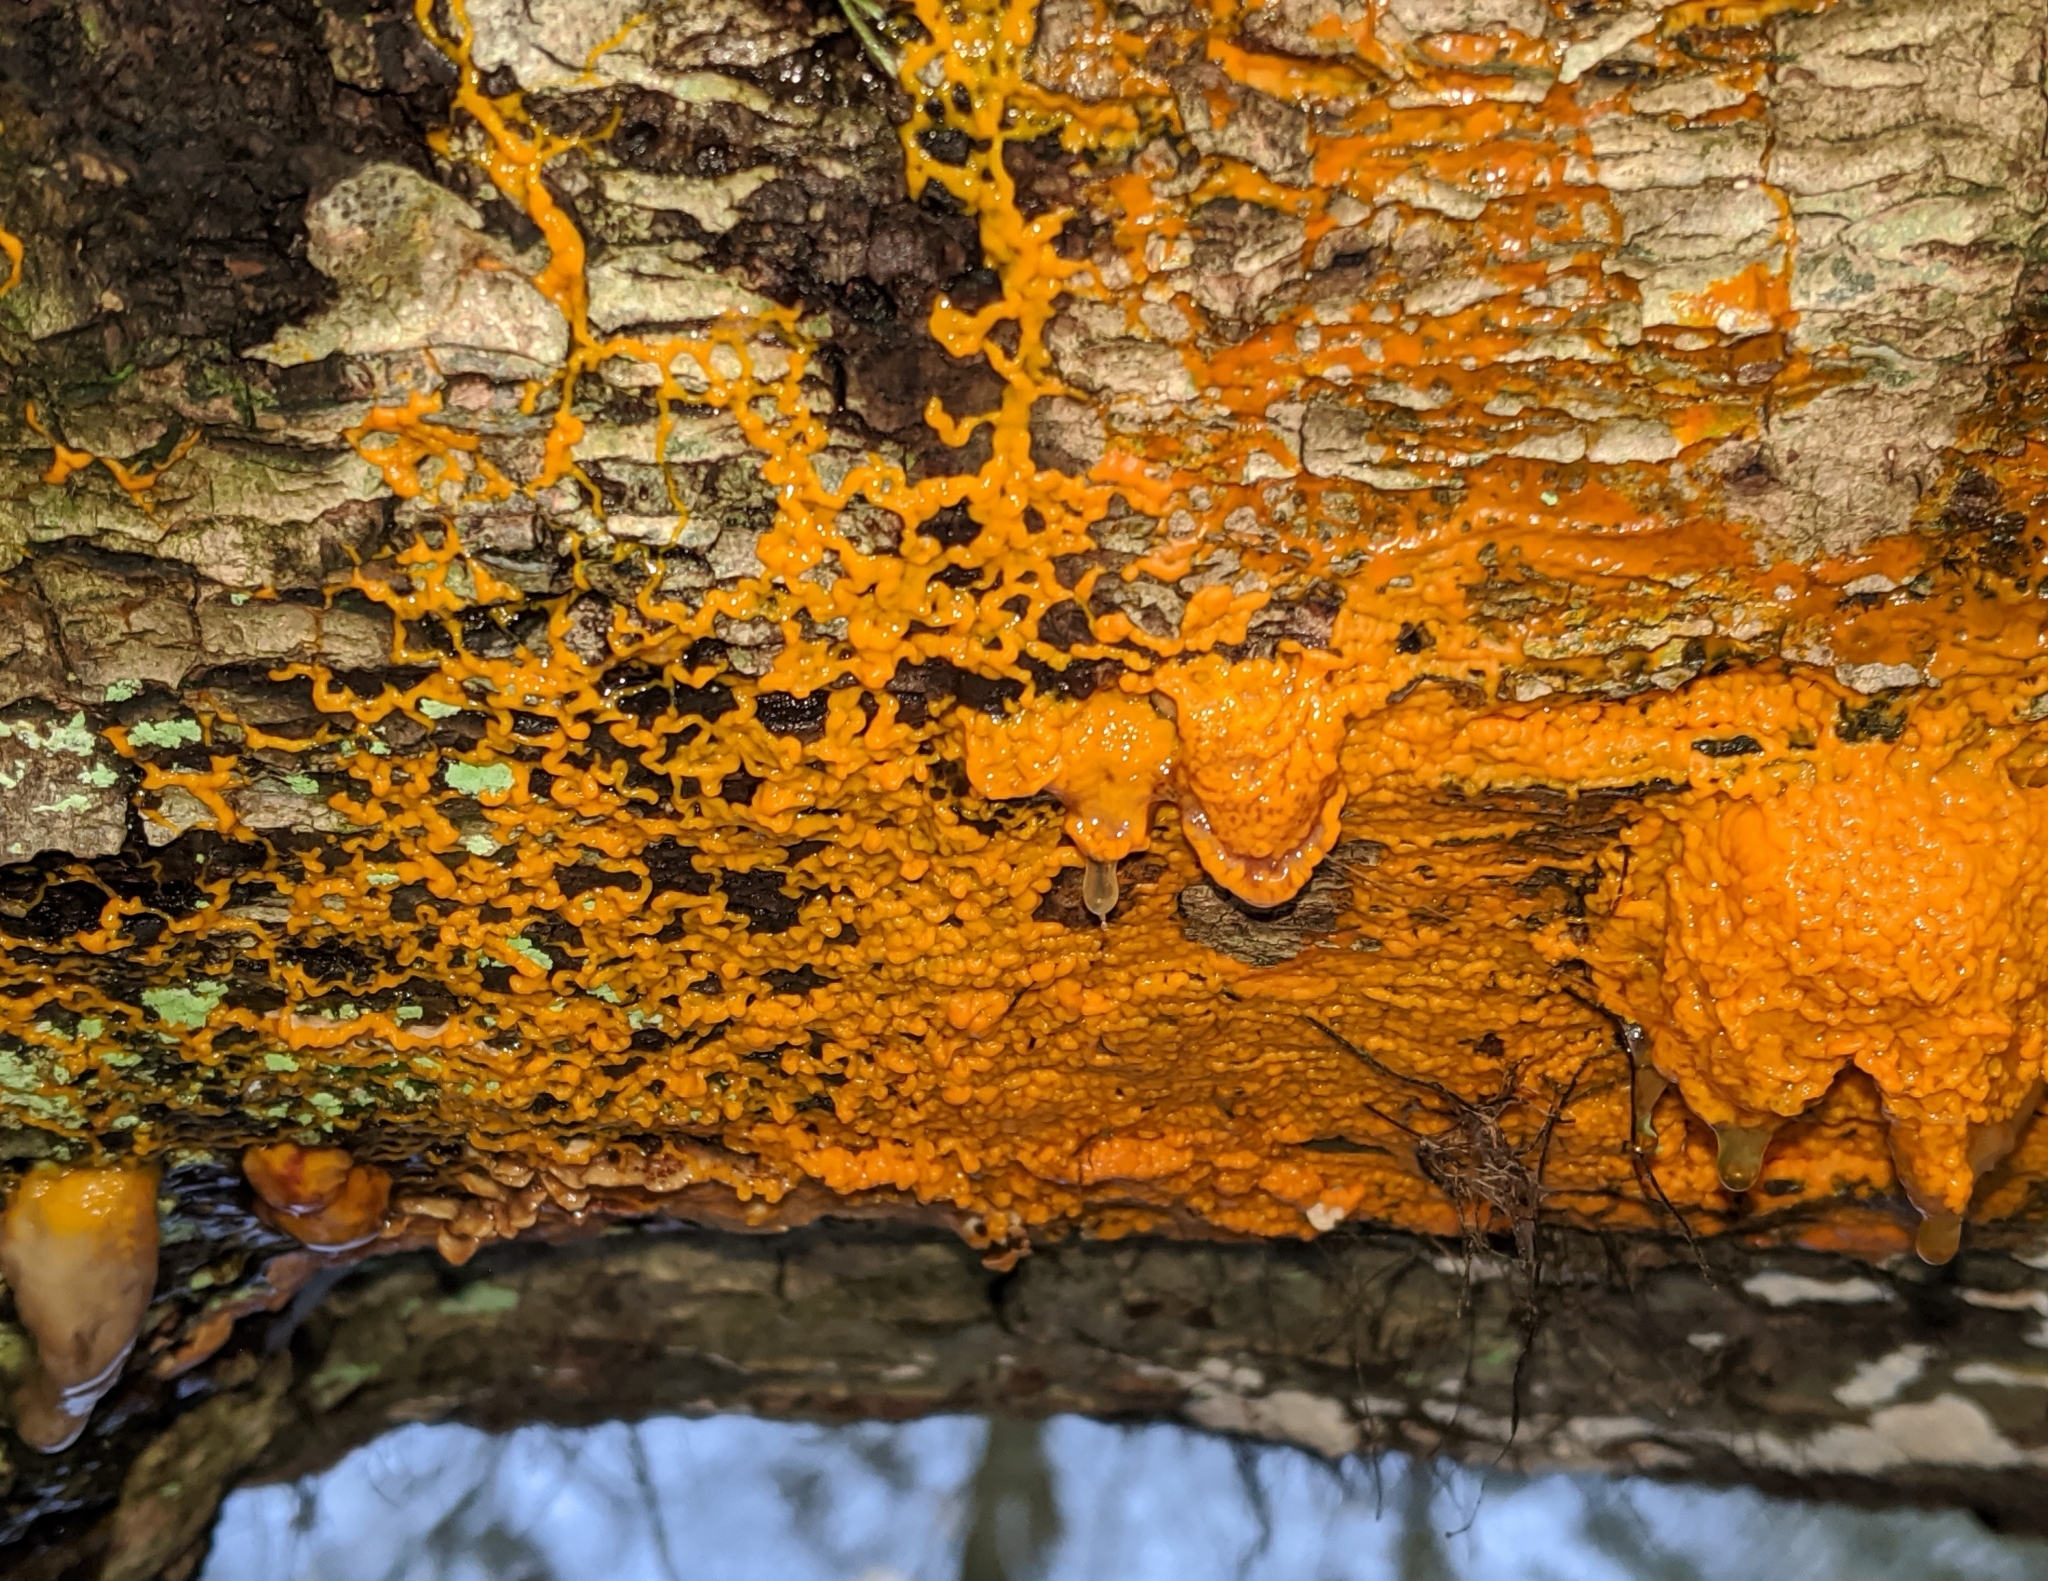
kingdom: Protozoa
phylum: Mycetozoa
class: Myxomycetes
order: Physarales
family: Physaraceae
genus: Badhamia
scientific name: Badhamia utricularis
